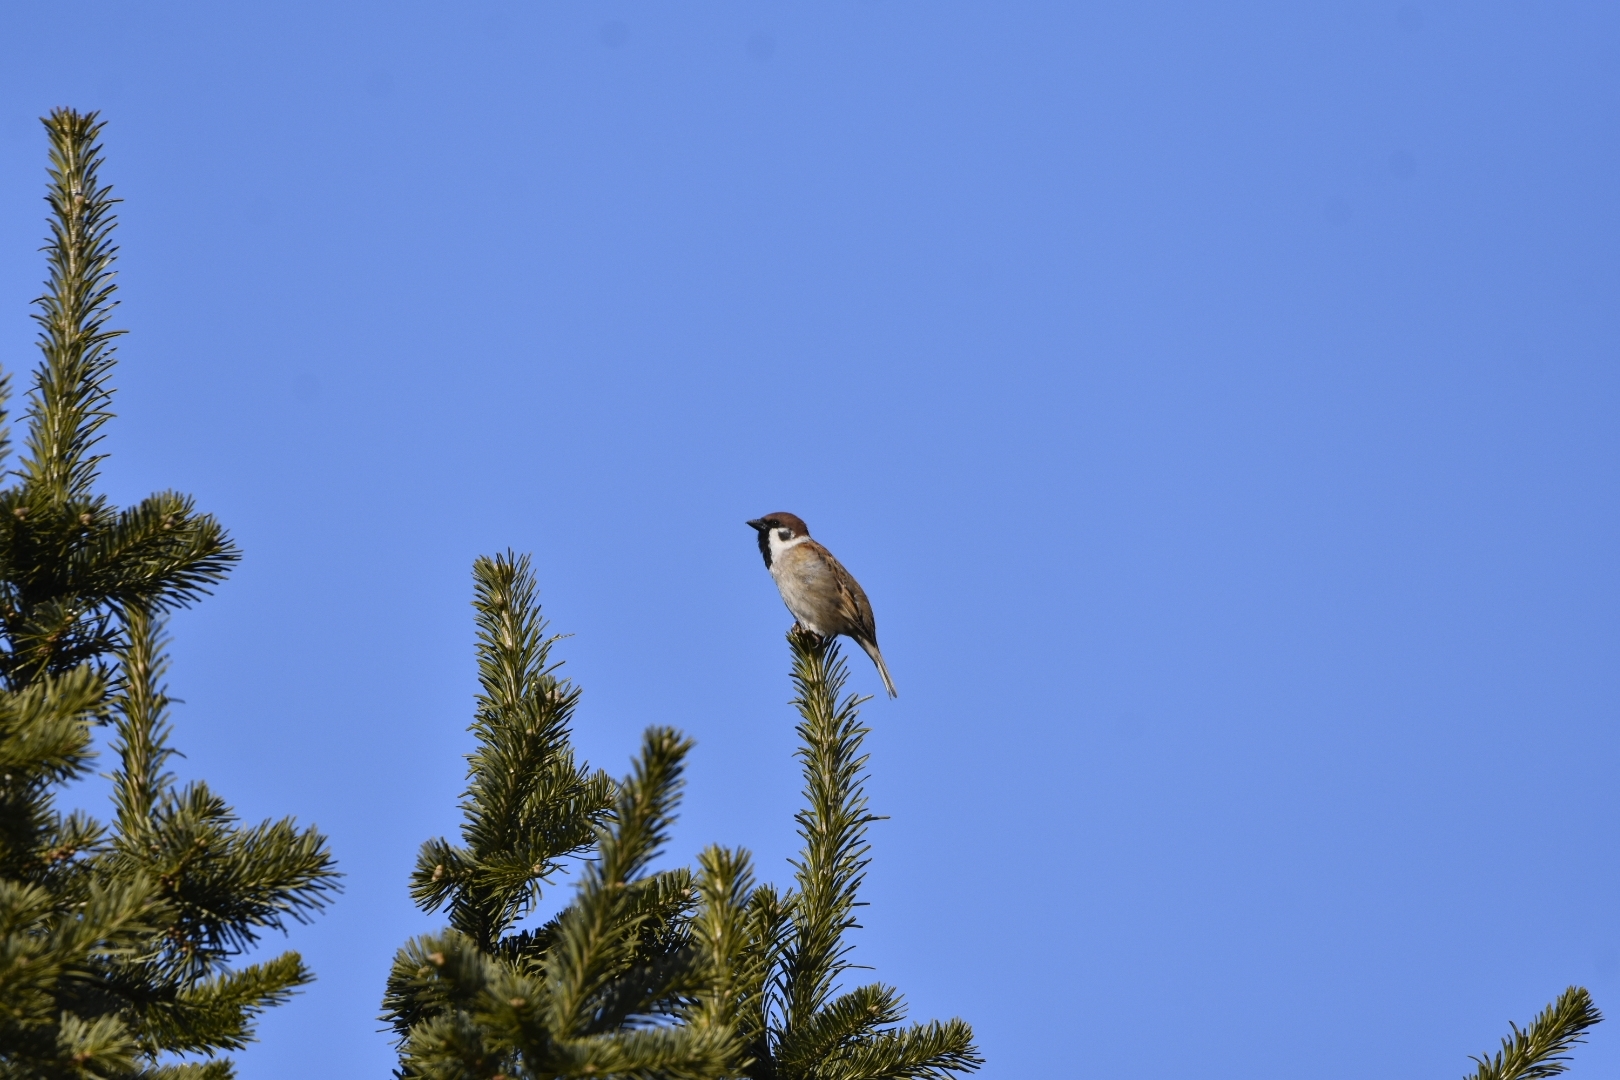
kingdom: Animalia
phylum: Chordata
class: Aves
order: Passeriformes
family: Passeridae
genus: Passer
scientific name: Passer montanus
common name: Eurasian tree sparrow
